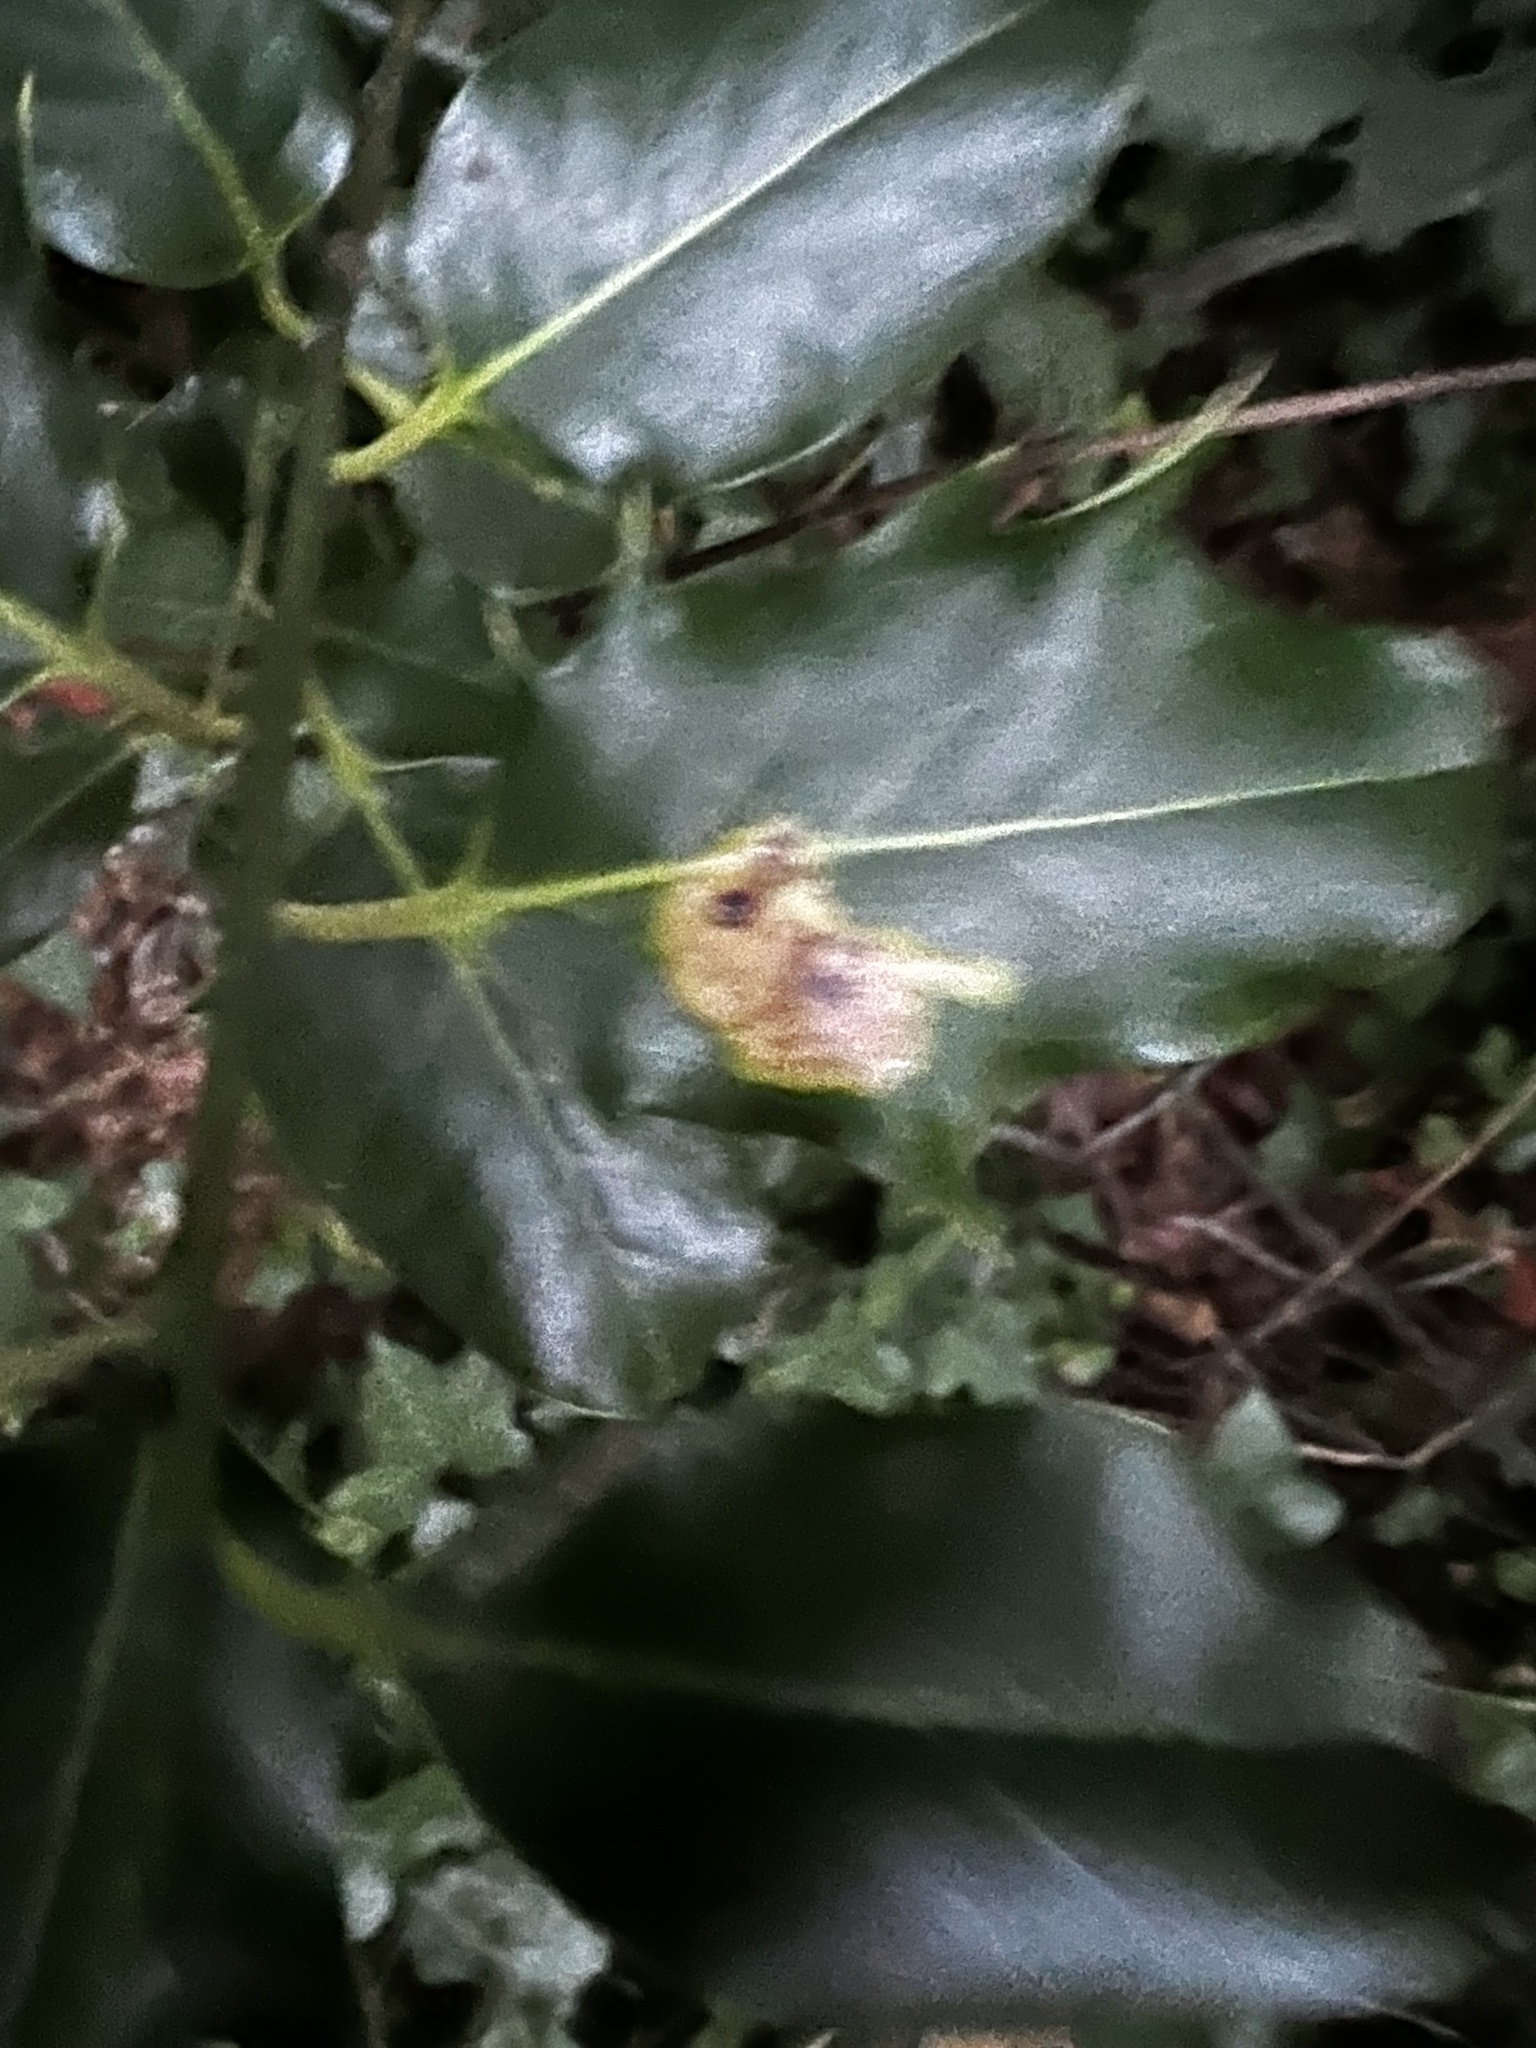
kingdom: Animalia
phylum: Arthropoda
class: Insecta
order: Diptera
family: Agromyzidae
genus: Phytomyza
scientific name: Phytomyza ilicis
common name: Holly leafminer
